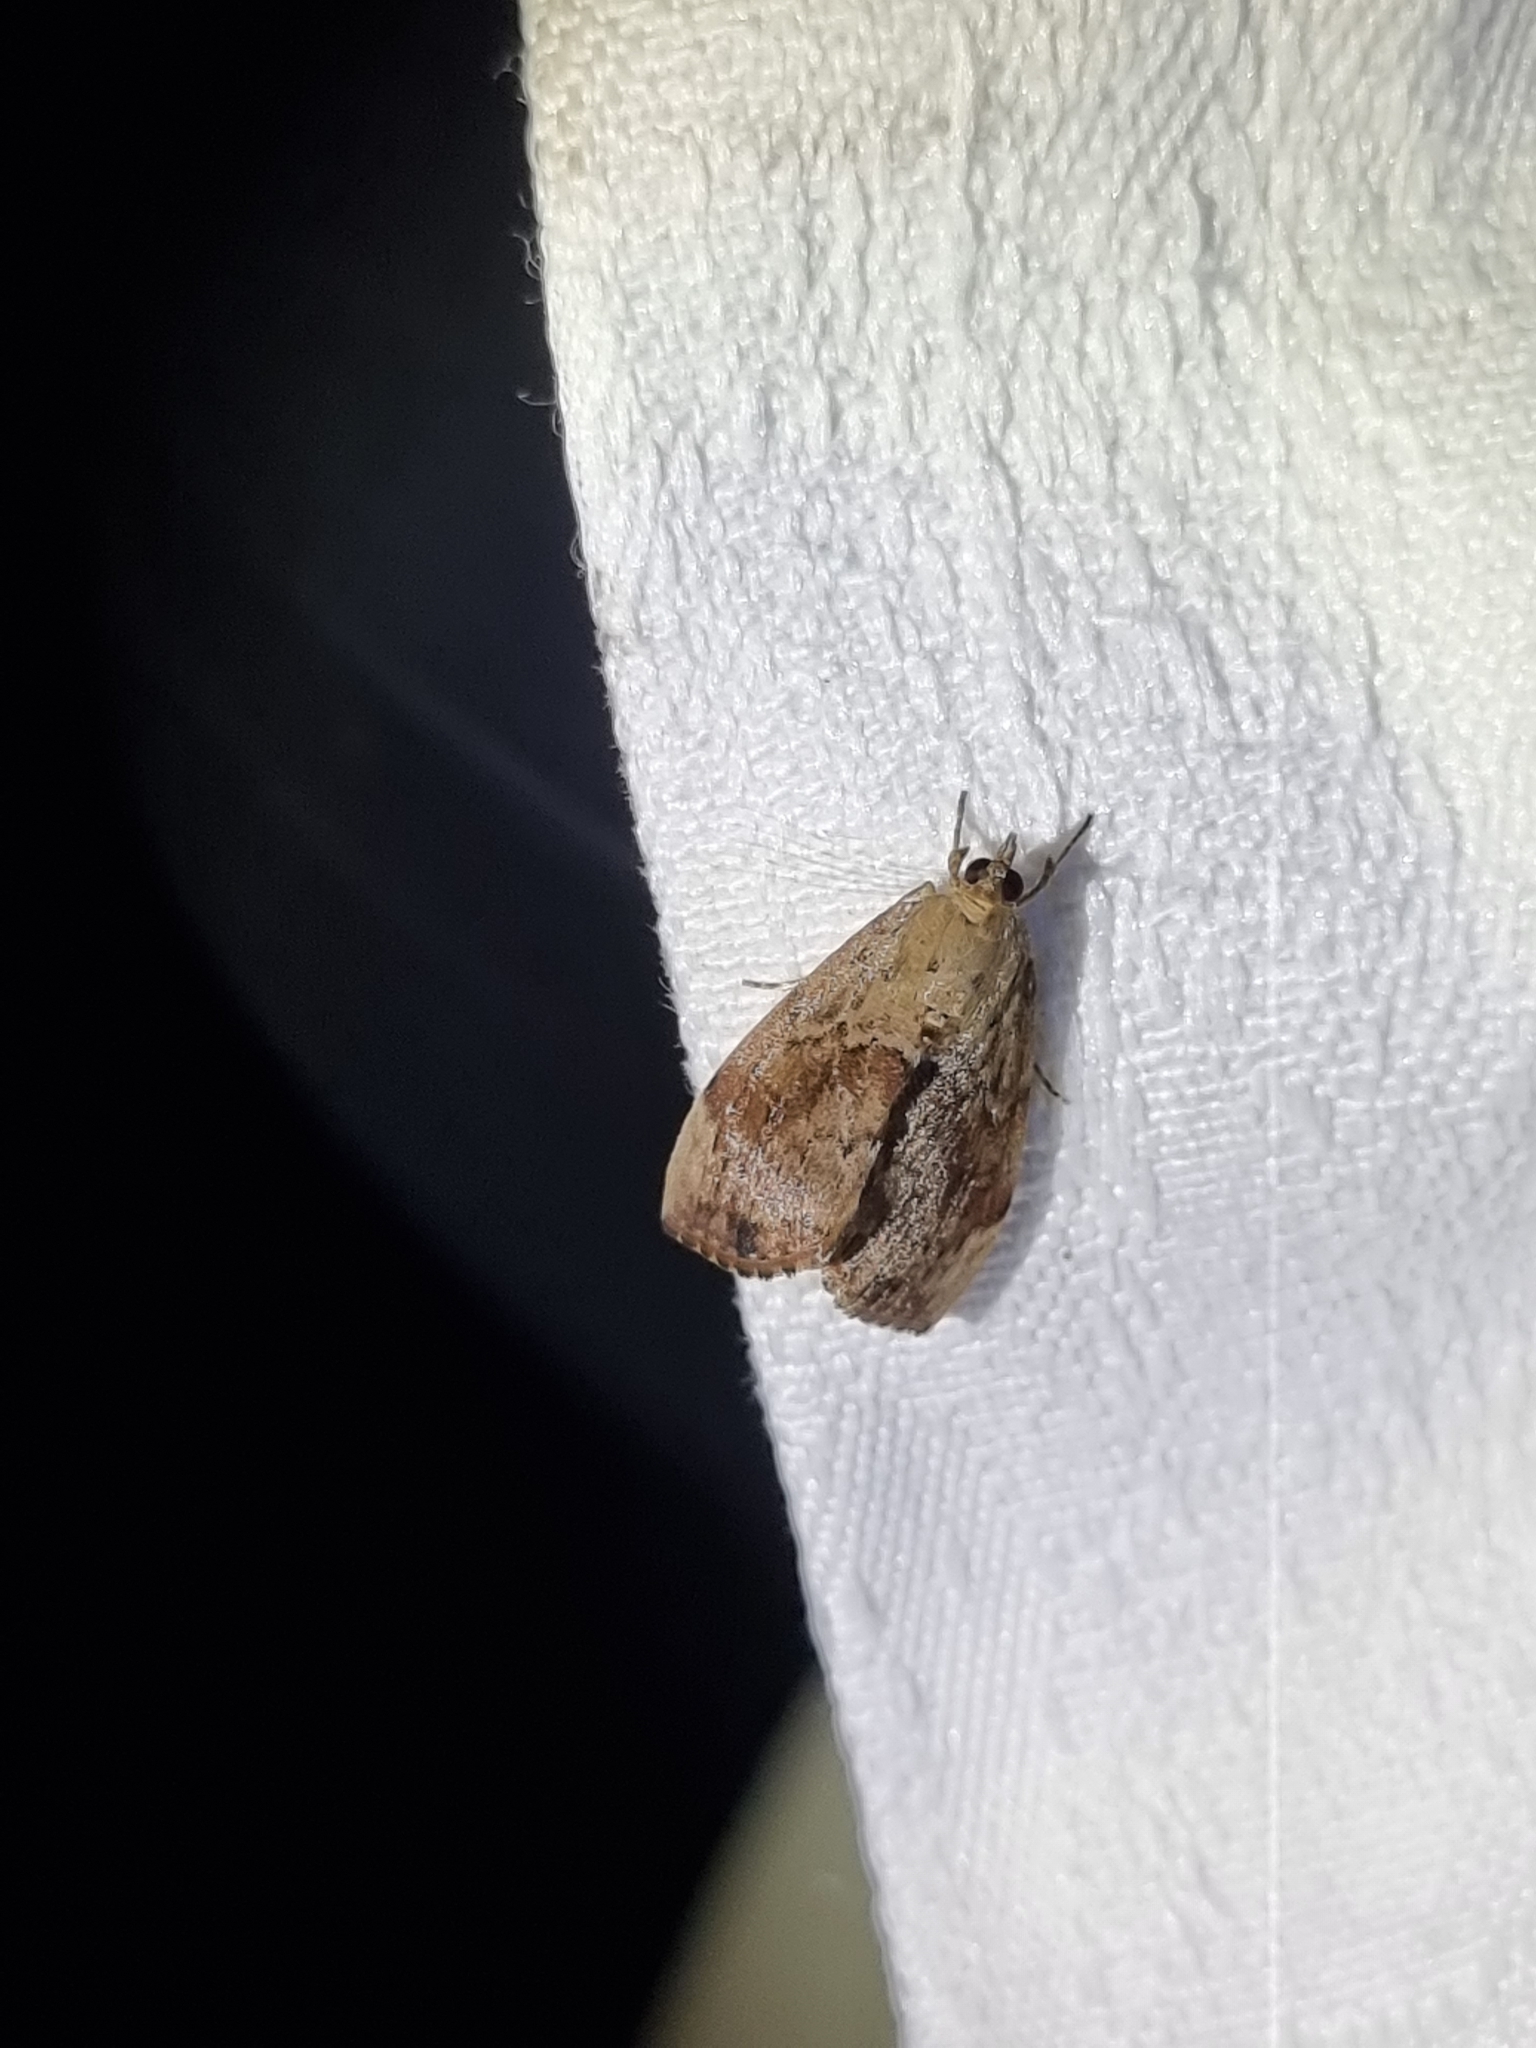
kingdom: Animalia
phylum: Arthropoda
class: Insecta
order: Lepidoptera
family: Crambidae
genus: Crocidolomia
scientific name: Crocidolomia pavonana
